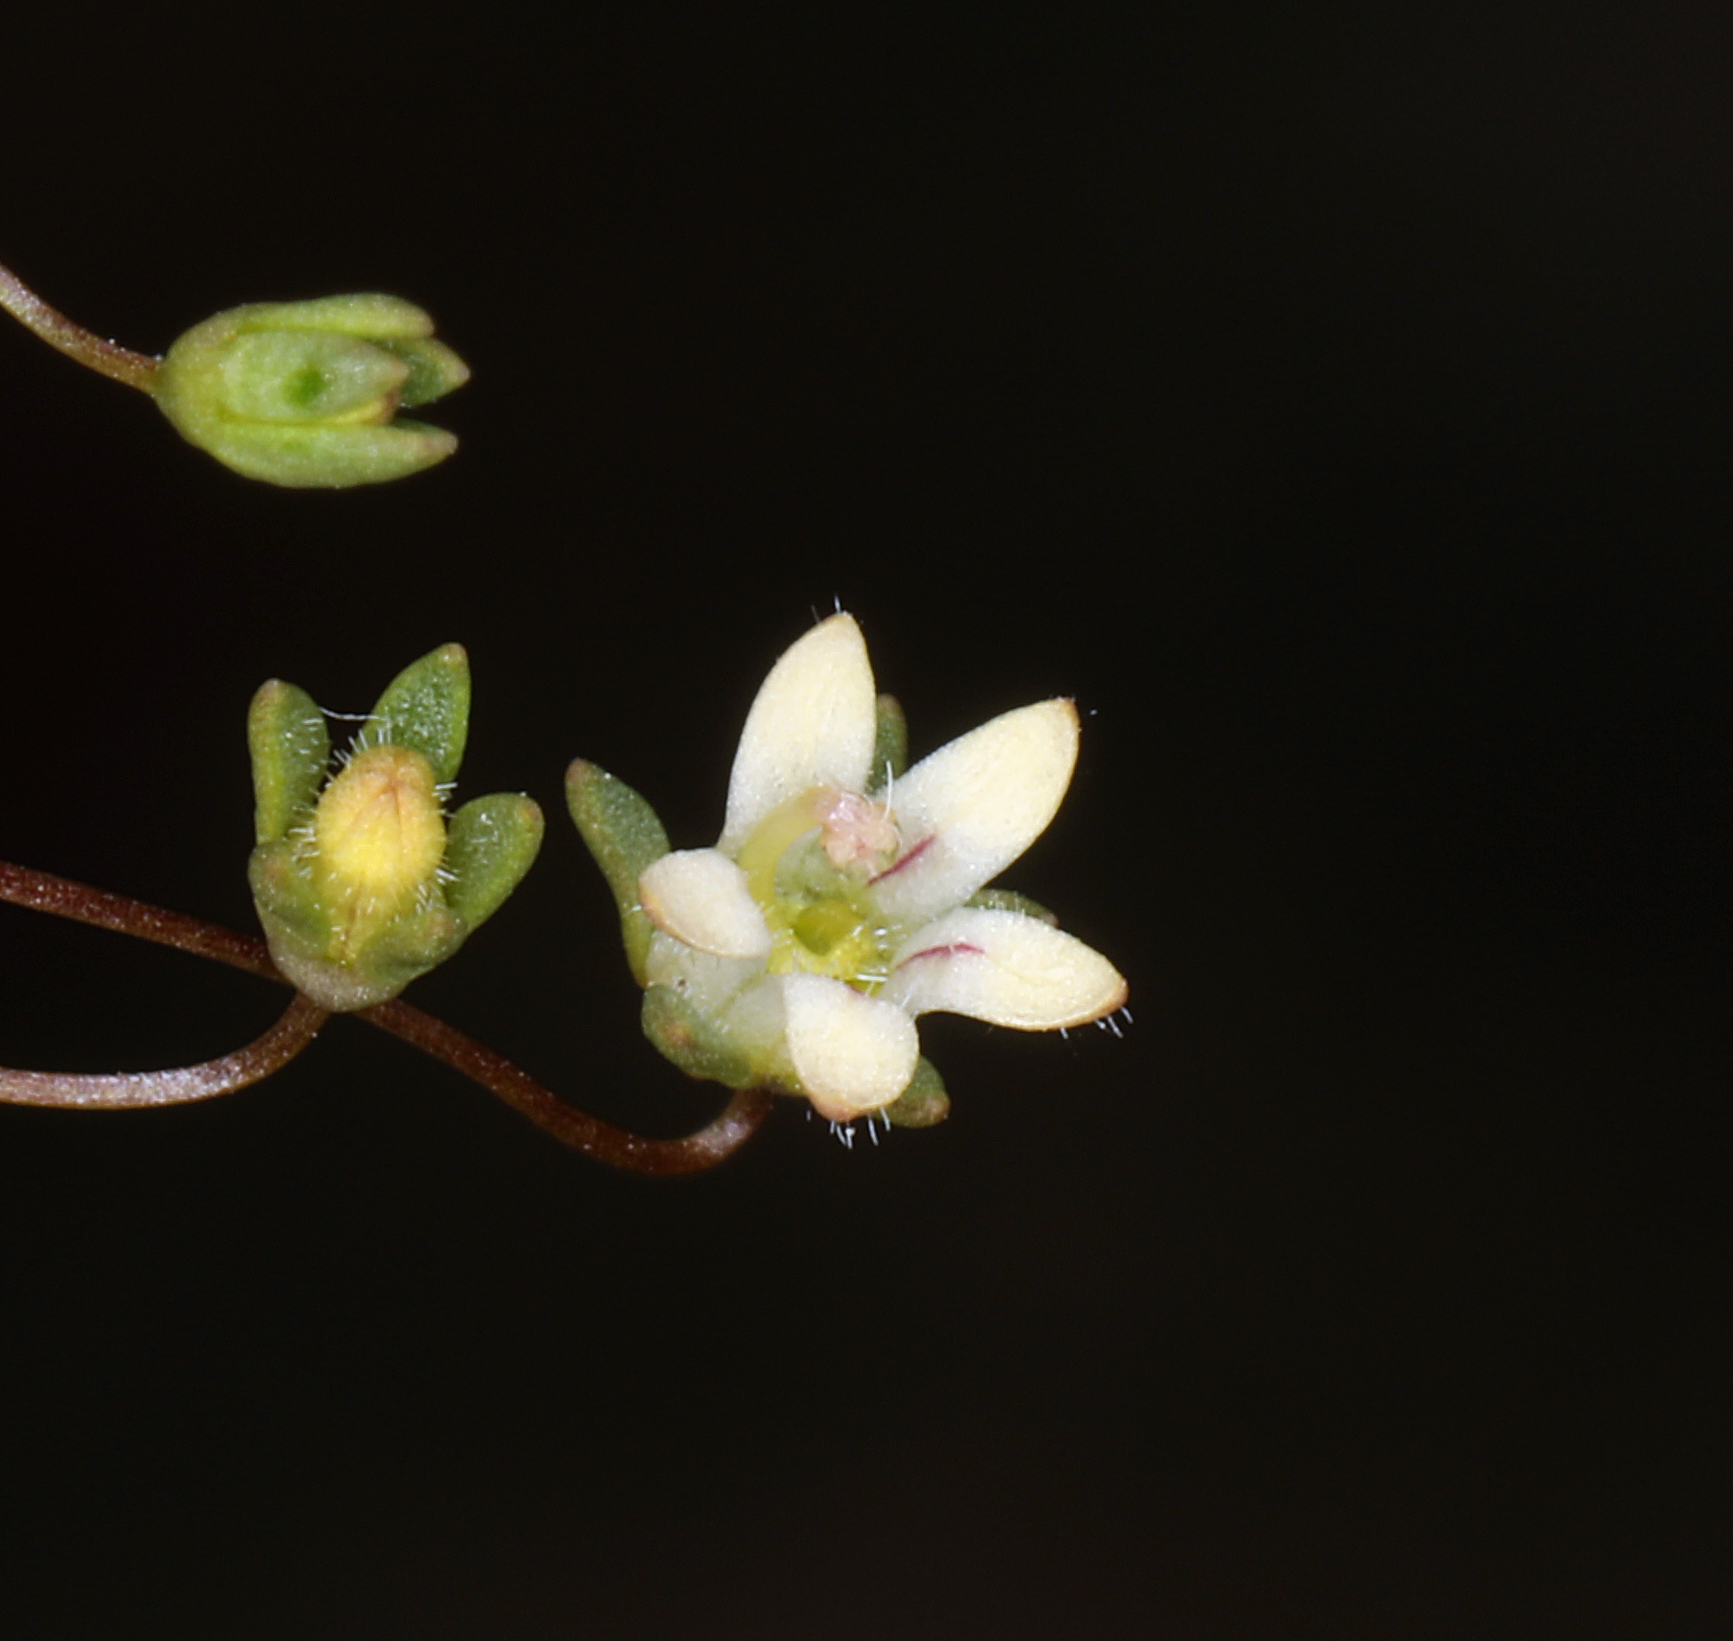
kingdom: Plantae
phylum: Tracheophyta
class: Magnoliopsida
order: Asterales
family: Campanulaceae
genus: Nemacladus
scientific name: Nemacladus inyoensis
